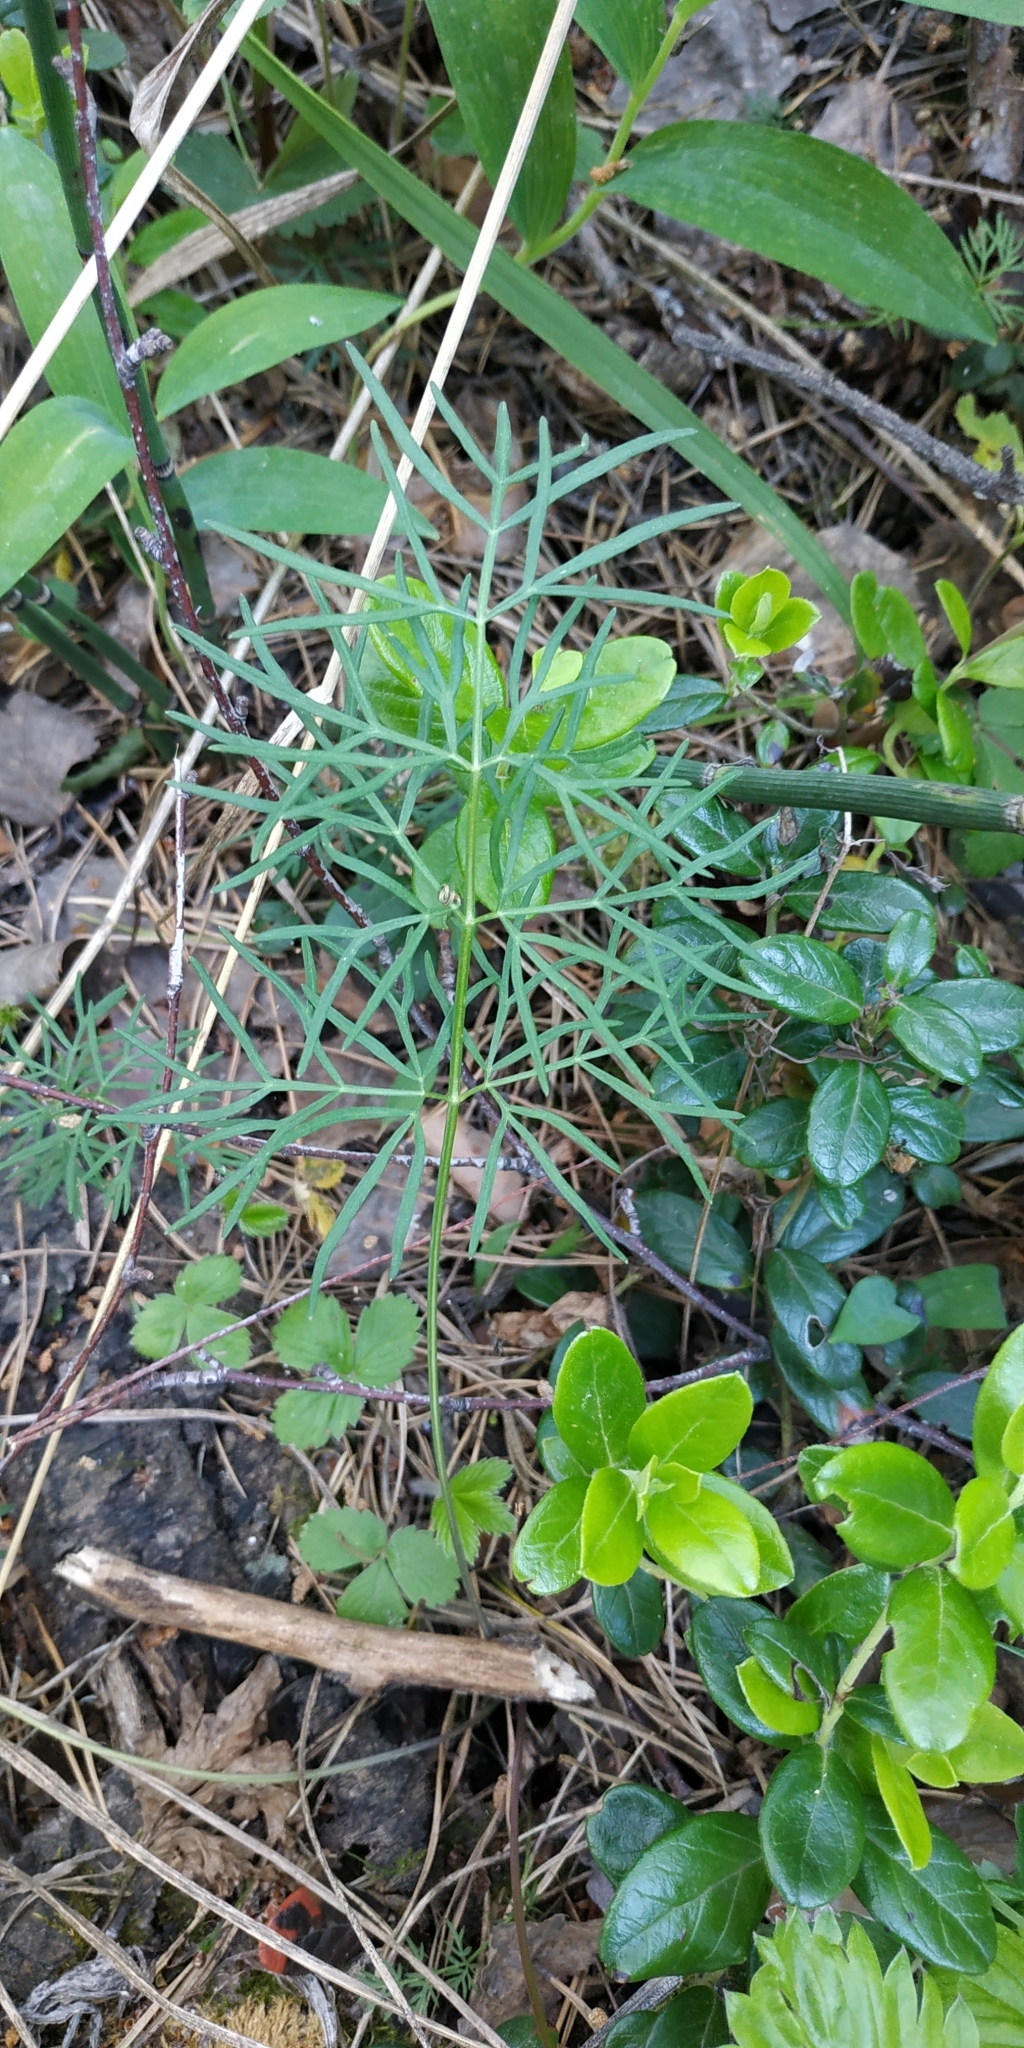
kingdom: Plantae
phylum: Tracheophyta
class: Magnoliopsida
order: Apiales
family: Apiaceae
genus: Kadenia
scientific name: Kadenia dubia
